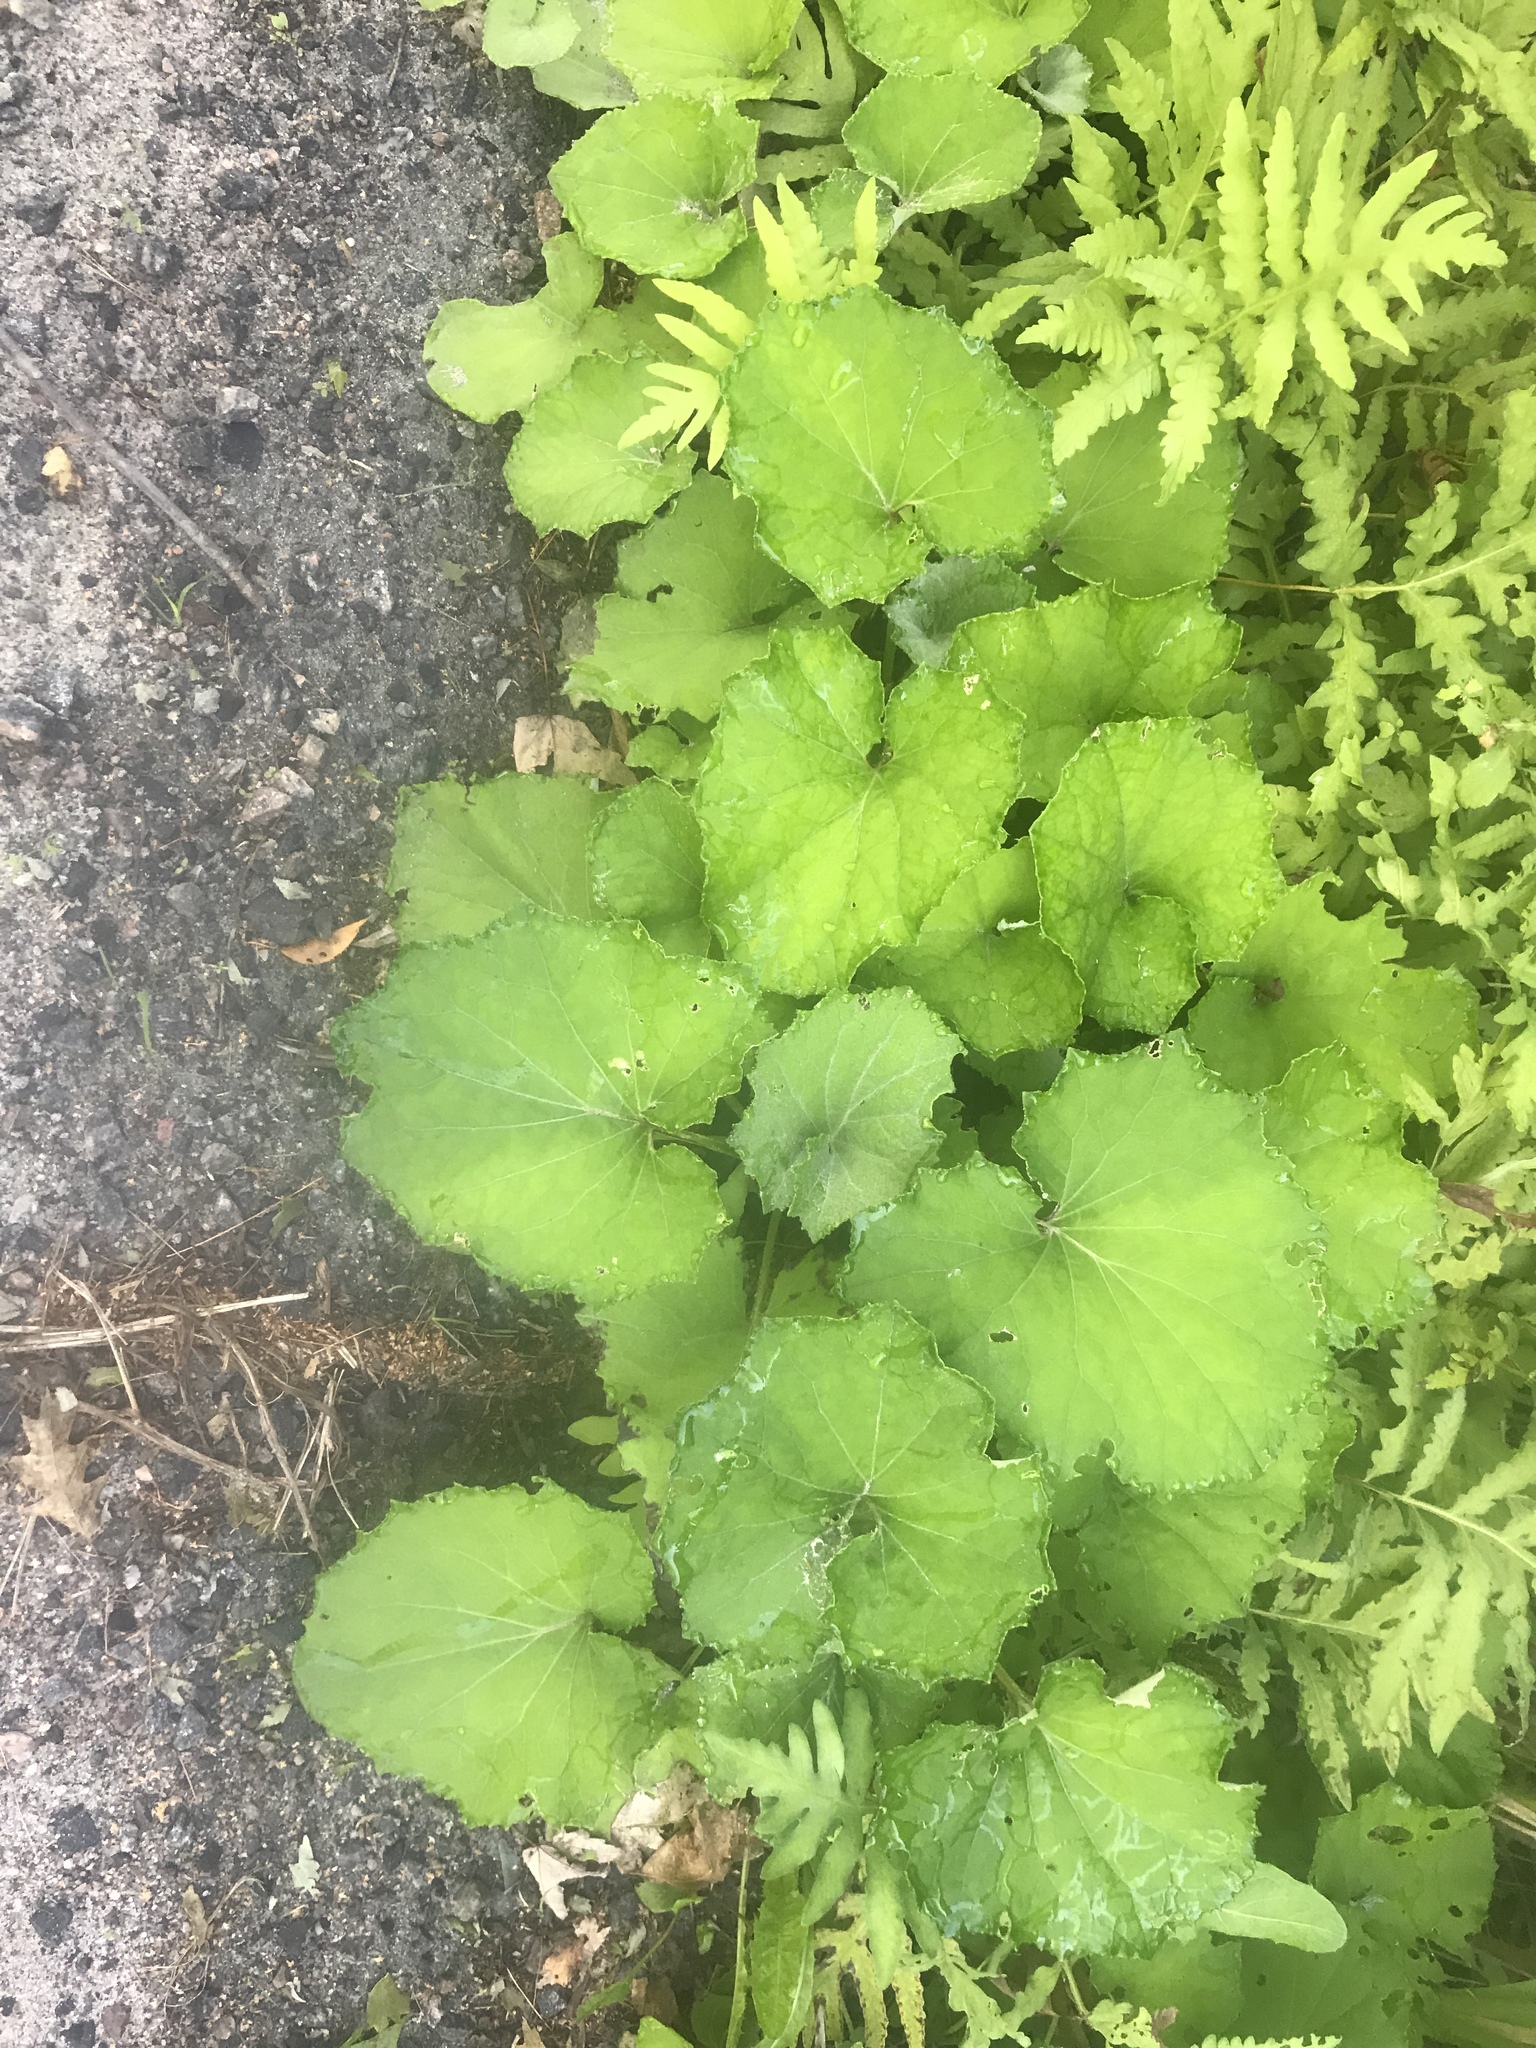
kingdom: Plantae
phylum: Tracheophyta
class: Magnoliopsida
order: Asterales
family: Asteraceae
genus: Tussilago
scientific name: Tussilago farfara
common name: Coltsfoot
